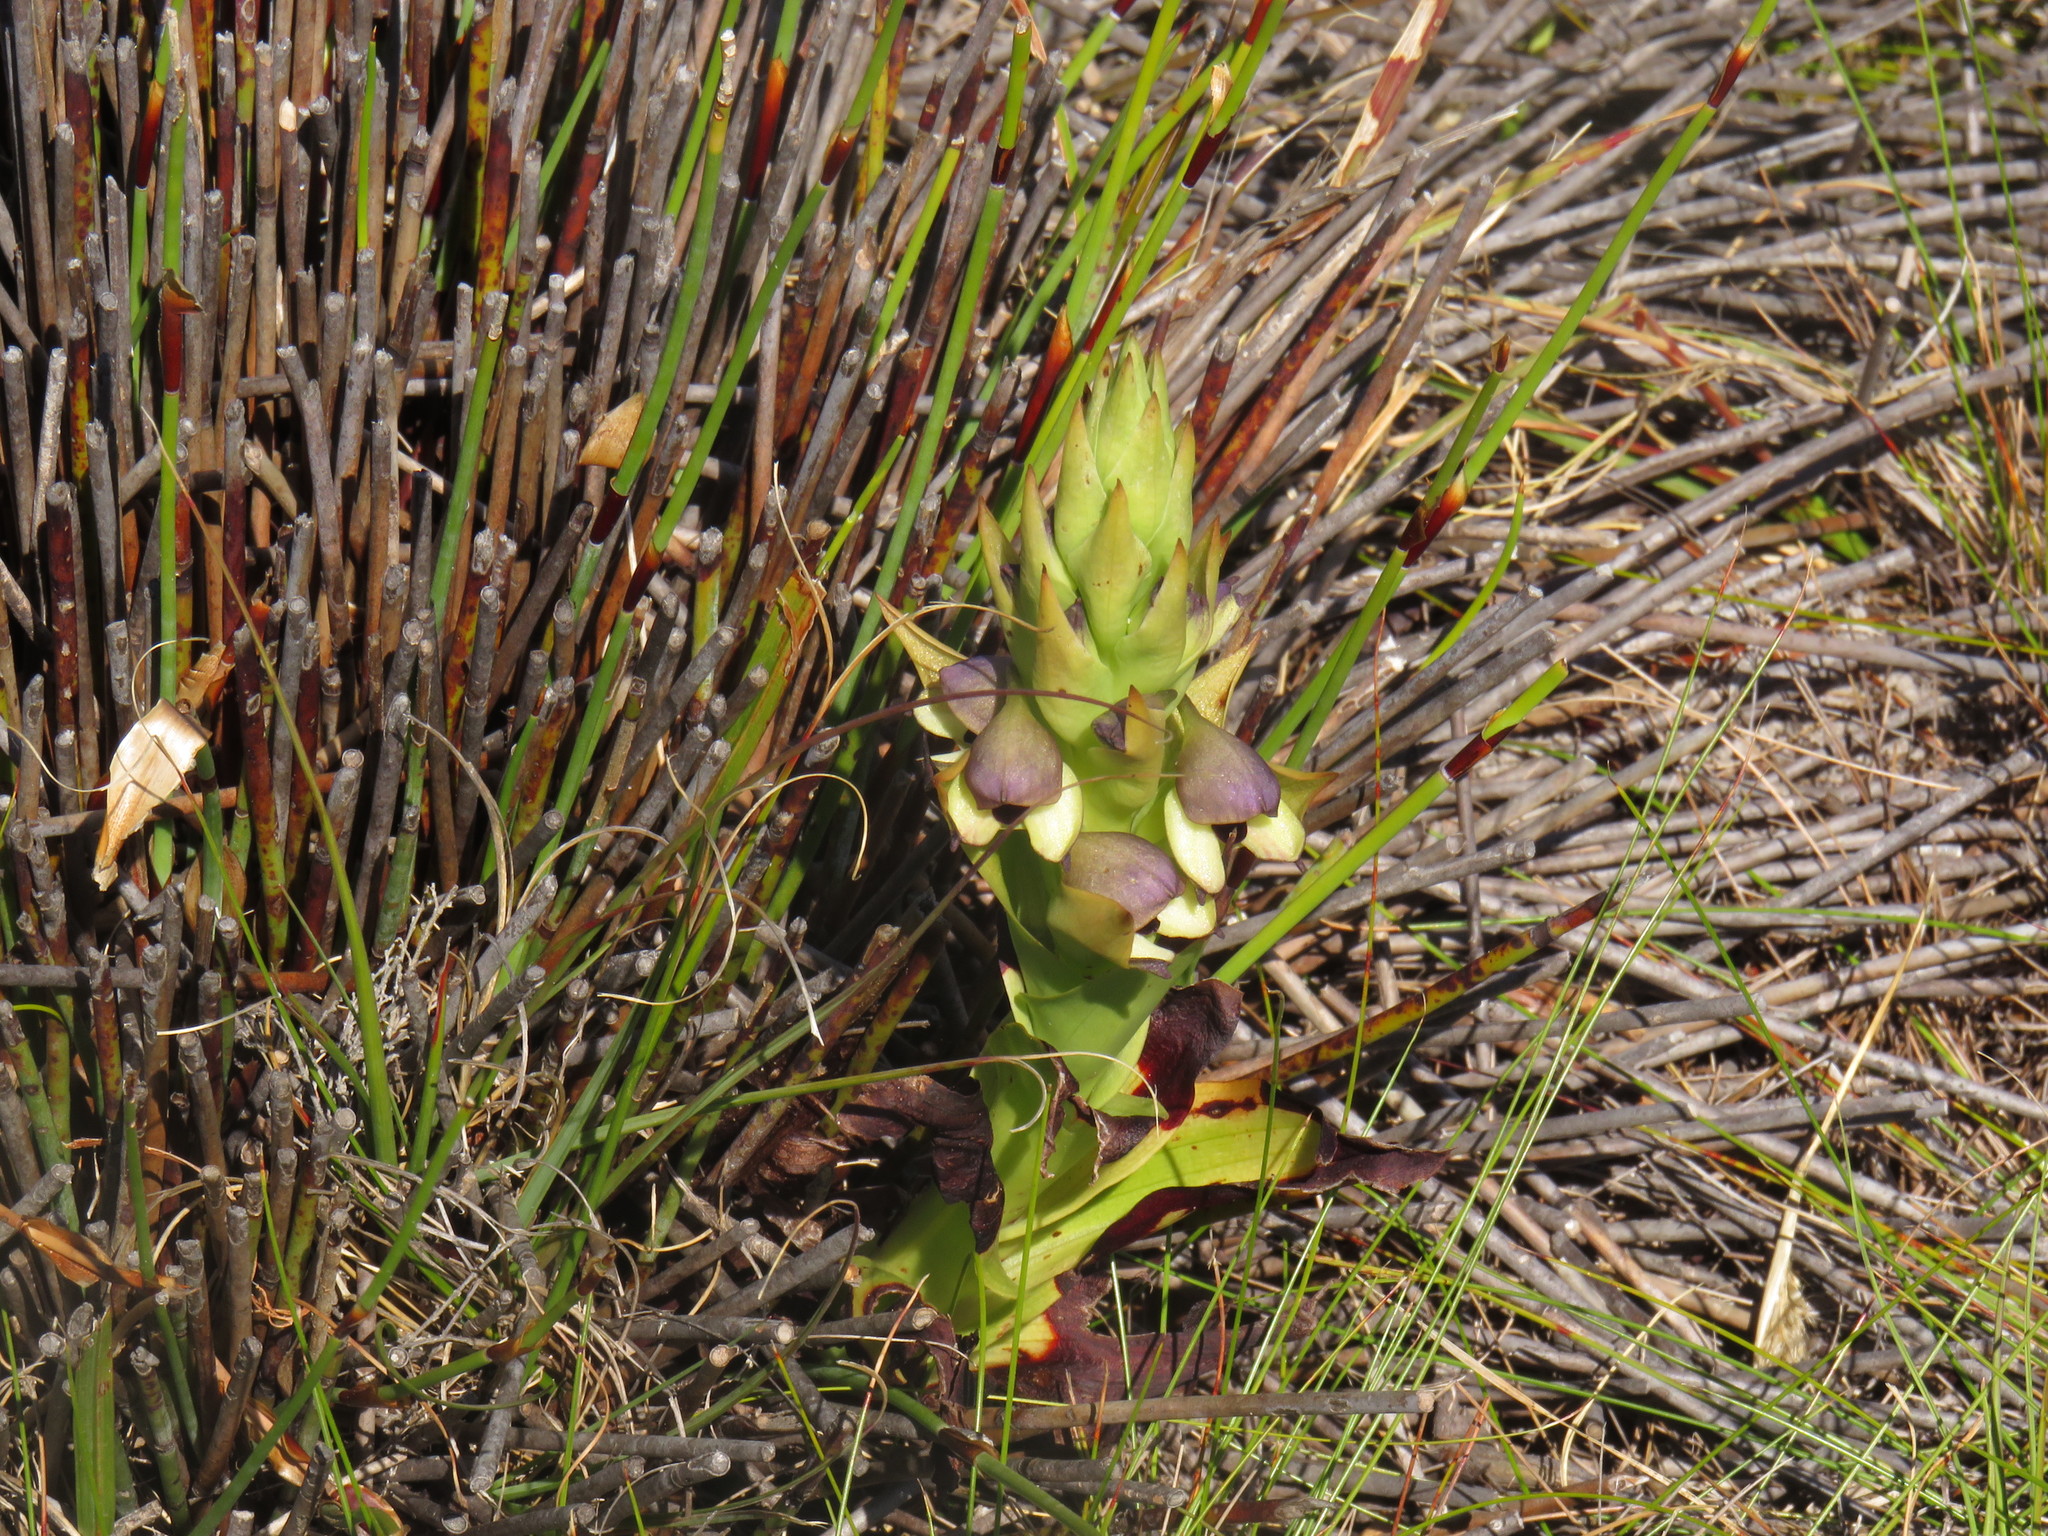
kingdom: Plantae
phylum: Tracheophyta
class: Liliopsida
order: Asparagales
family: Orchidaceae
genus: Disa
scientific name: Disa cornuta
